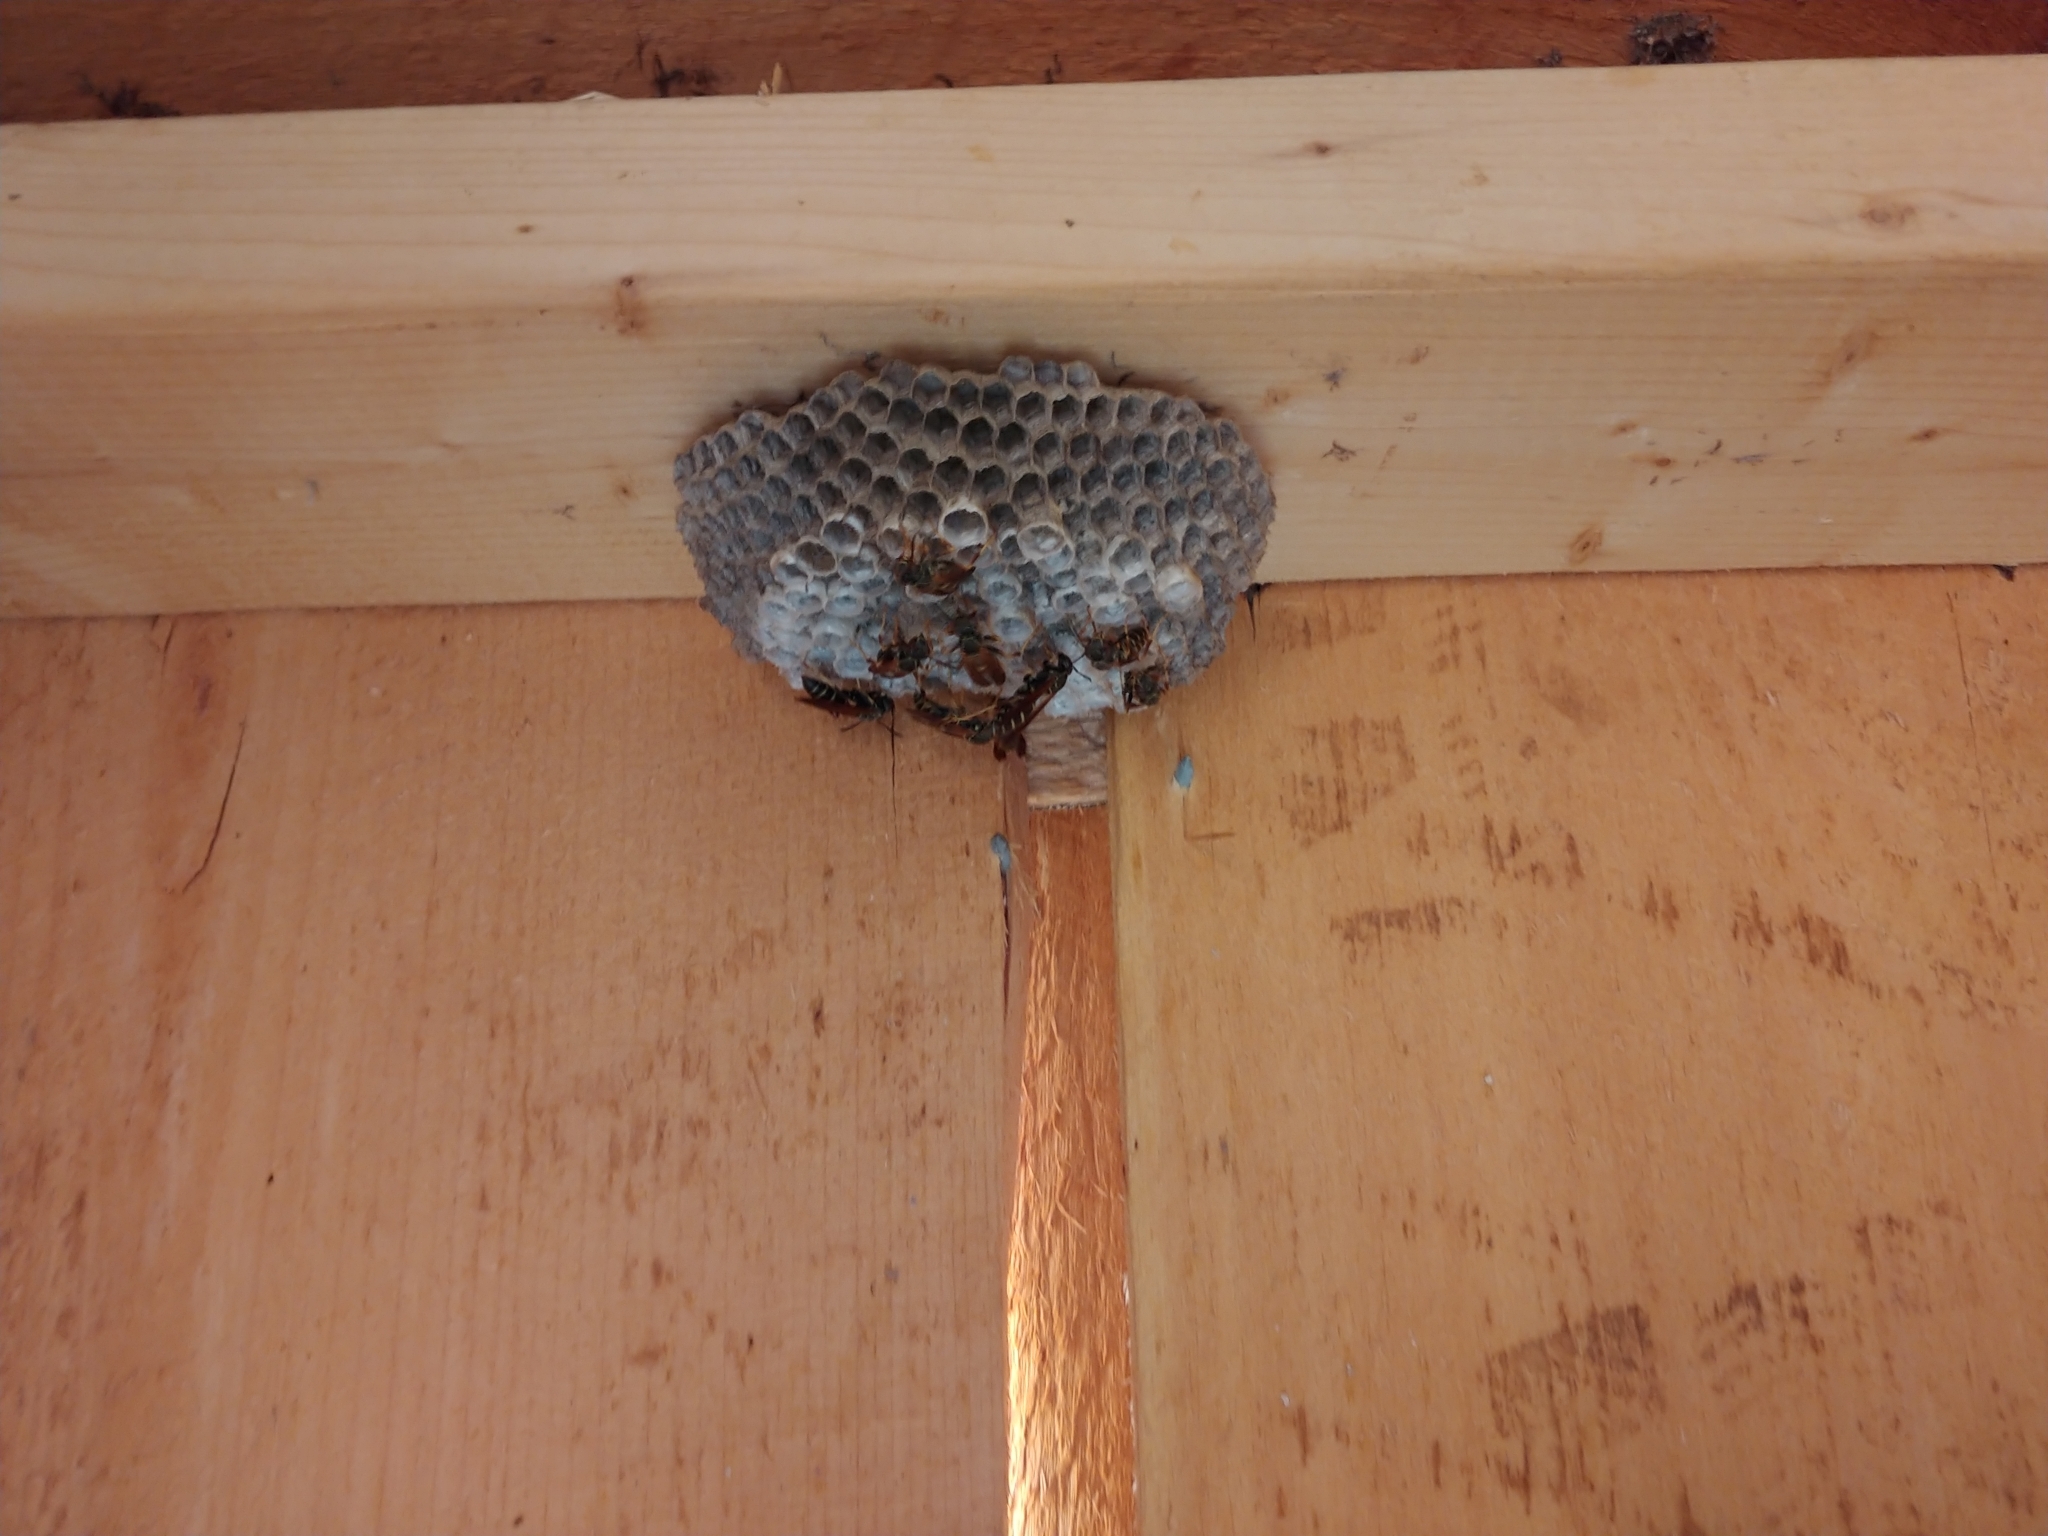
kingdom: Animalia
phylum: Arthropoda
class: Insecta
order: Hymenoptera
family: Eumenidae
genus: Polistes
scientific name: Polistes fuscatus
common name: Dark paper wasp
